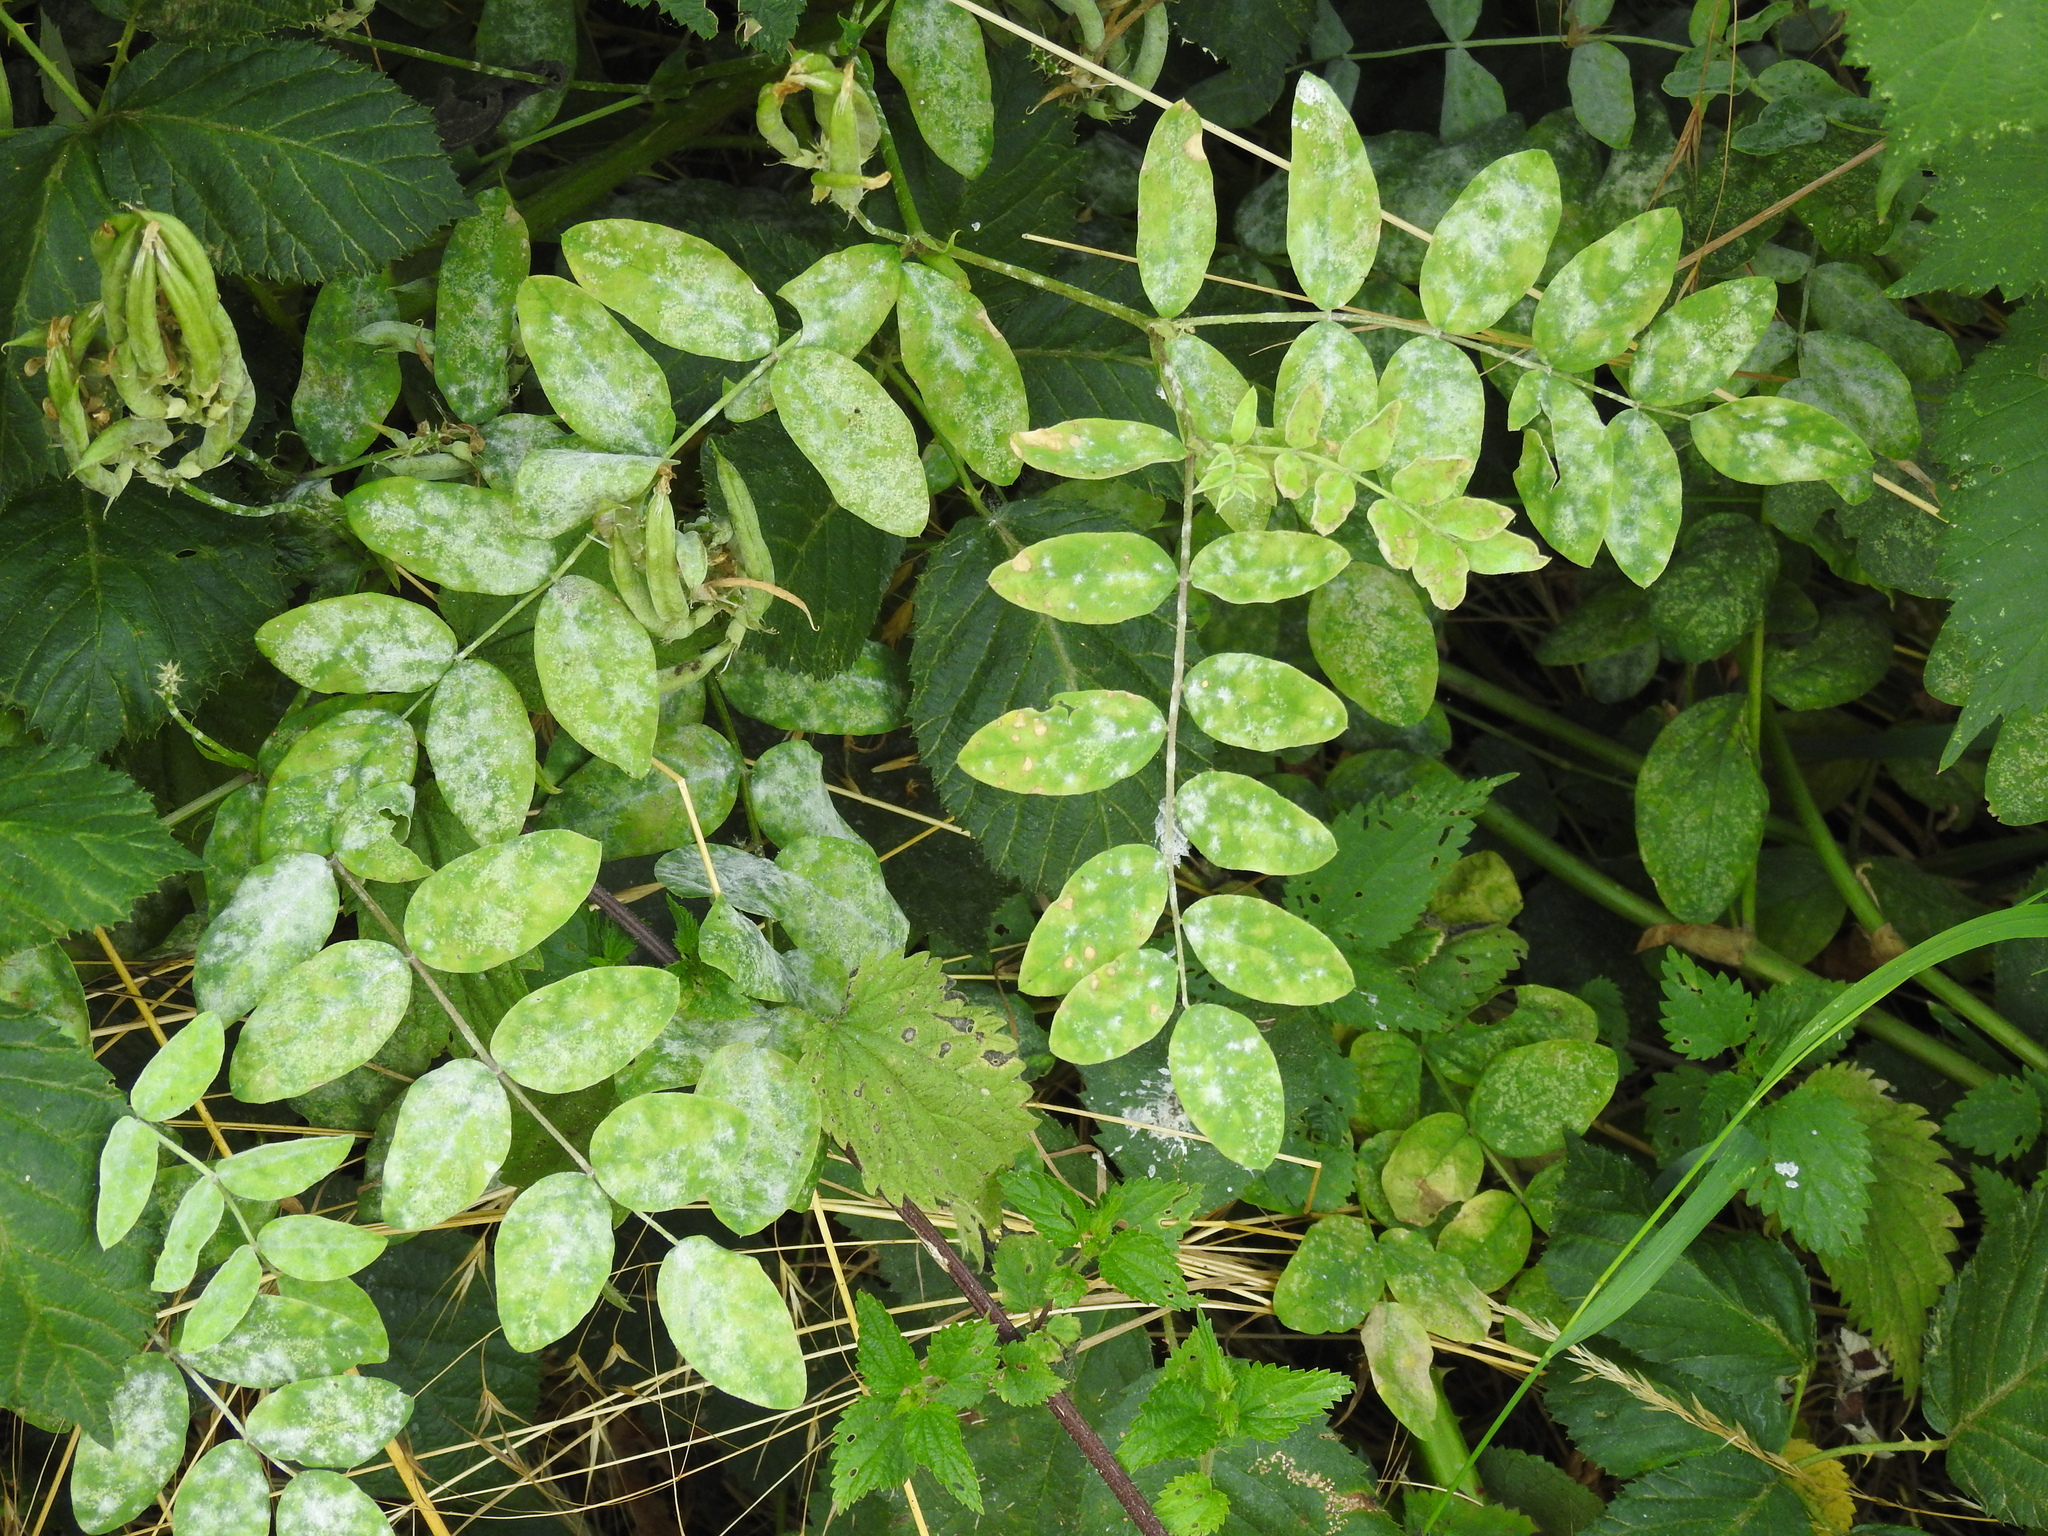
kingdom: Plantae
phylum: Tracheophyta
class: Magnoliopsida
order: Fabales
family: Fabaceae
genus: Astragalus
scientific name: Astragalus glycyphyllos
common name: Wild liquorice
